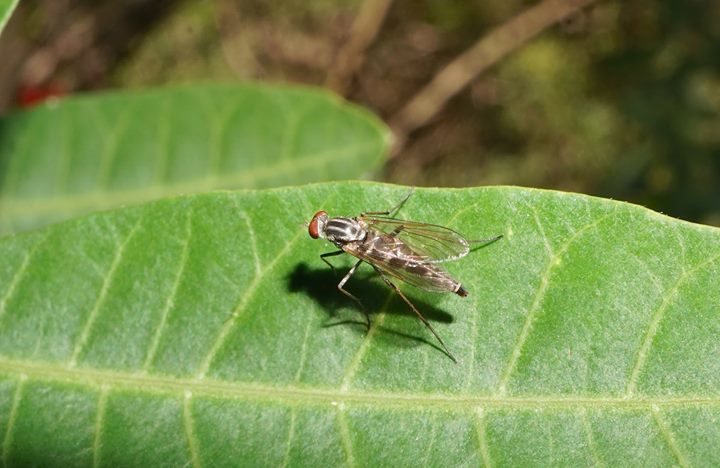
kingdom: Animalia
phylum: Arthropoda
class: Insecta
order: Diptera
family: Therevidae
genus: Penniverpa
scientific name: Penniverpa festina
